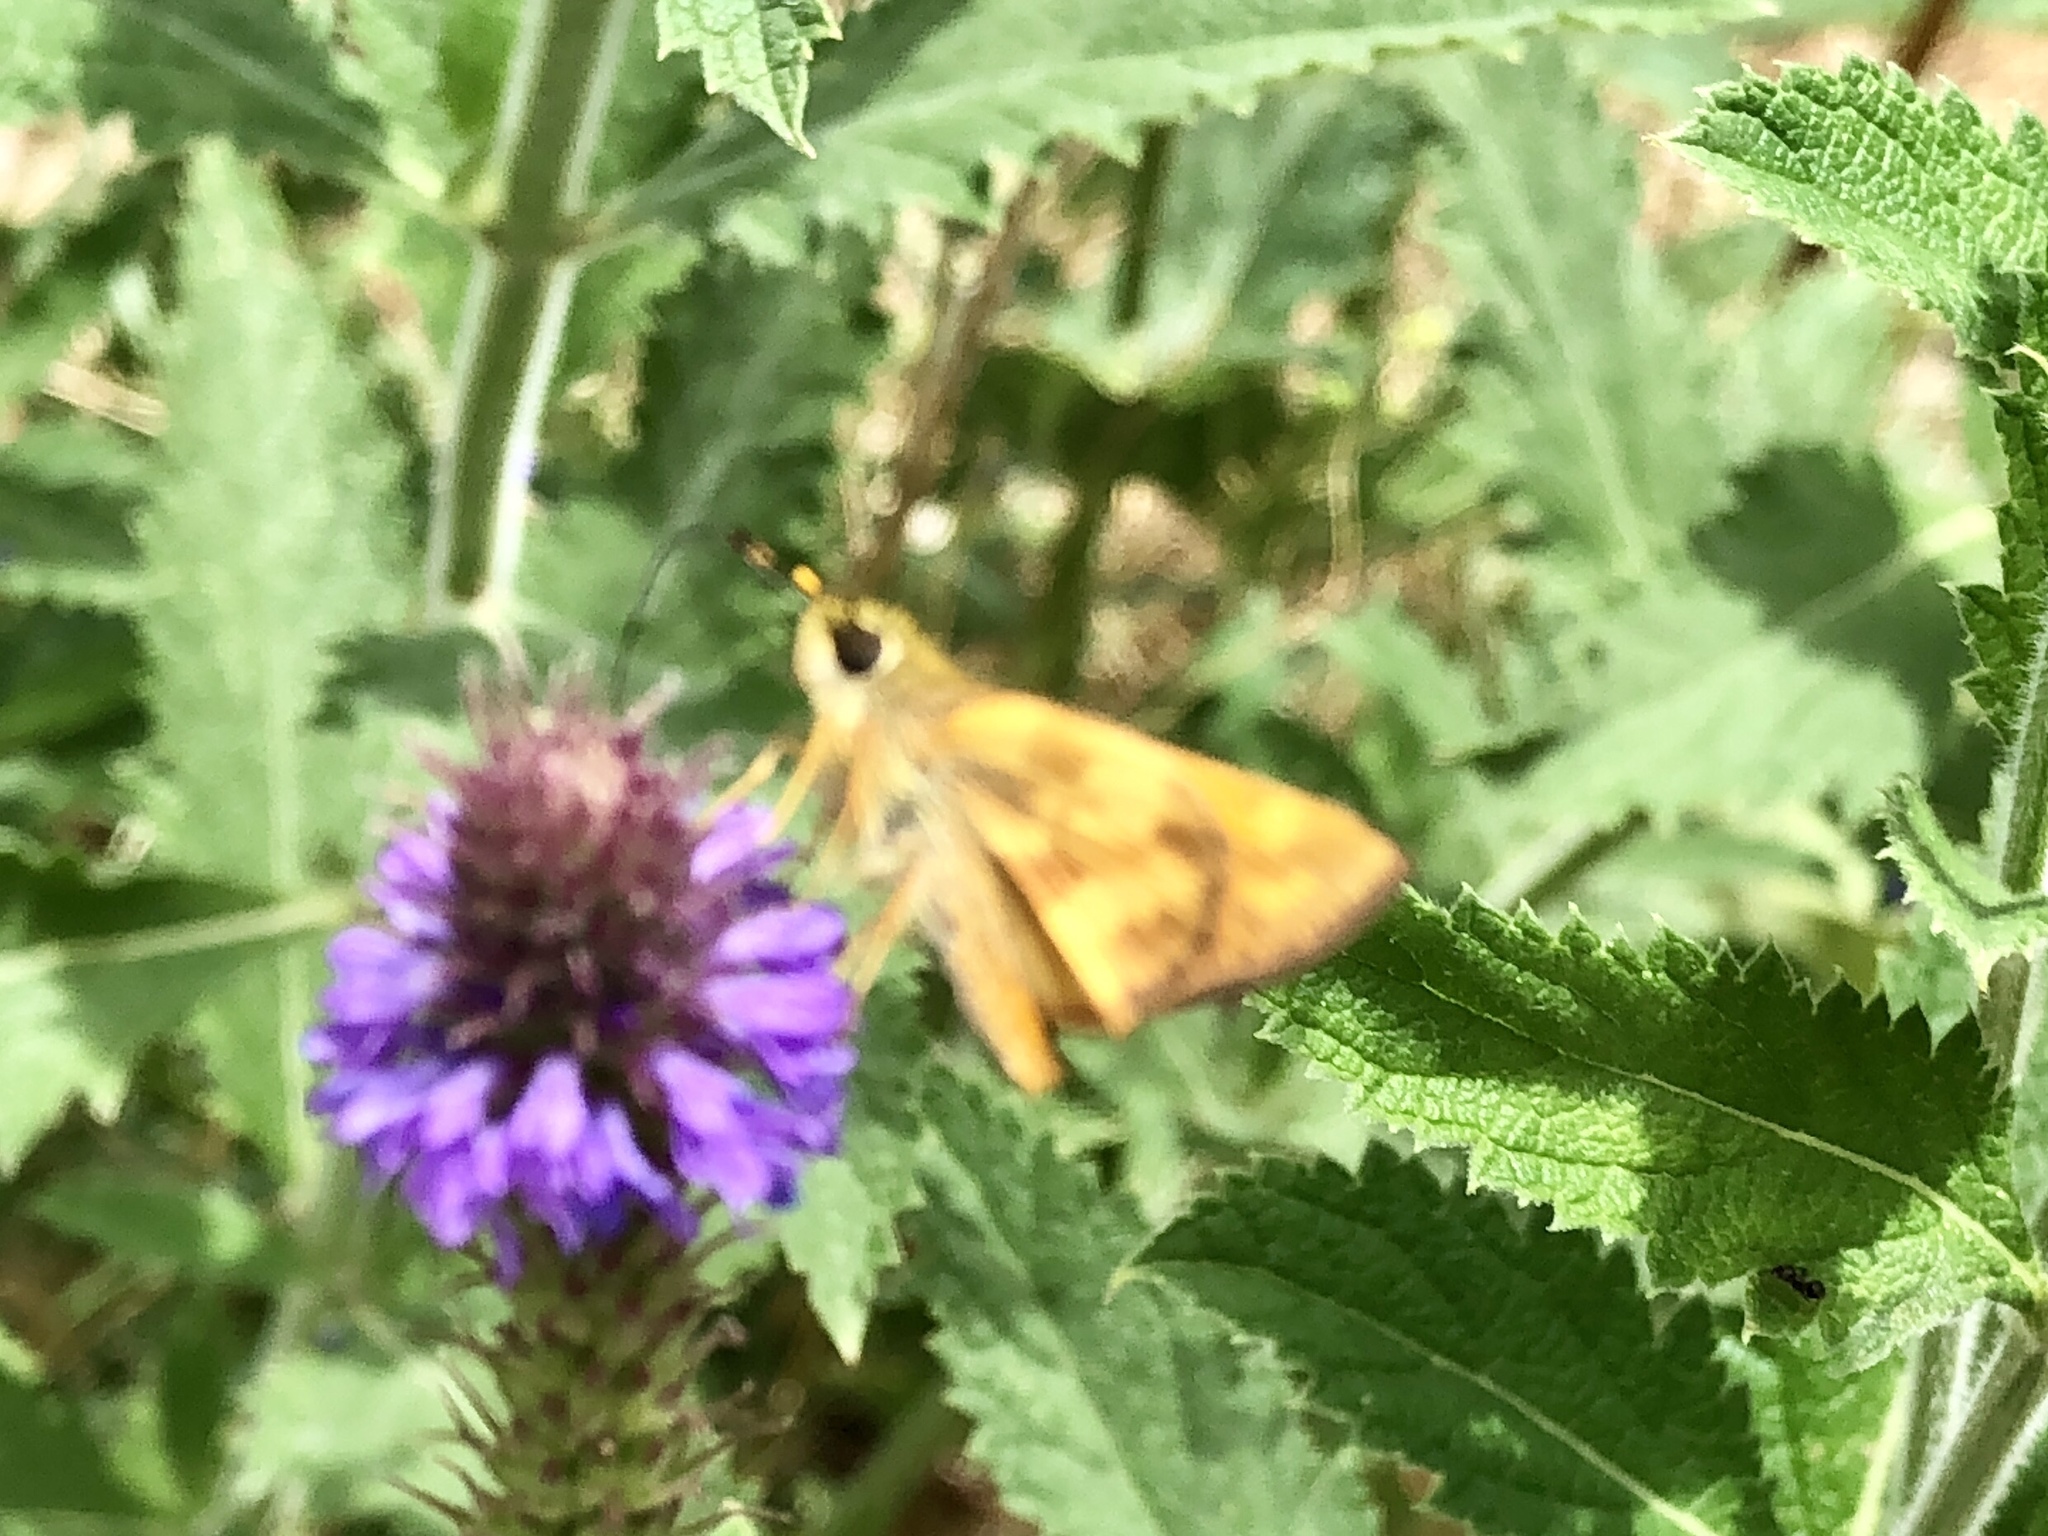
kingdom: Animalia
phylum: Arthropoda
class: Insecta
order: Lepidoptera
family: Hesperiidae
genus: Lon
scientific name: Lon taxiles
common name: Taxiles skipper
